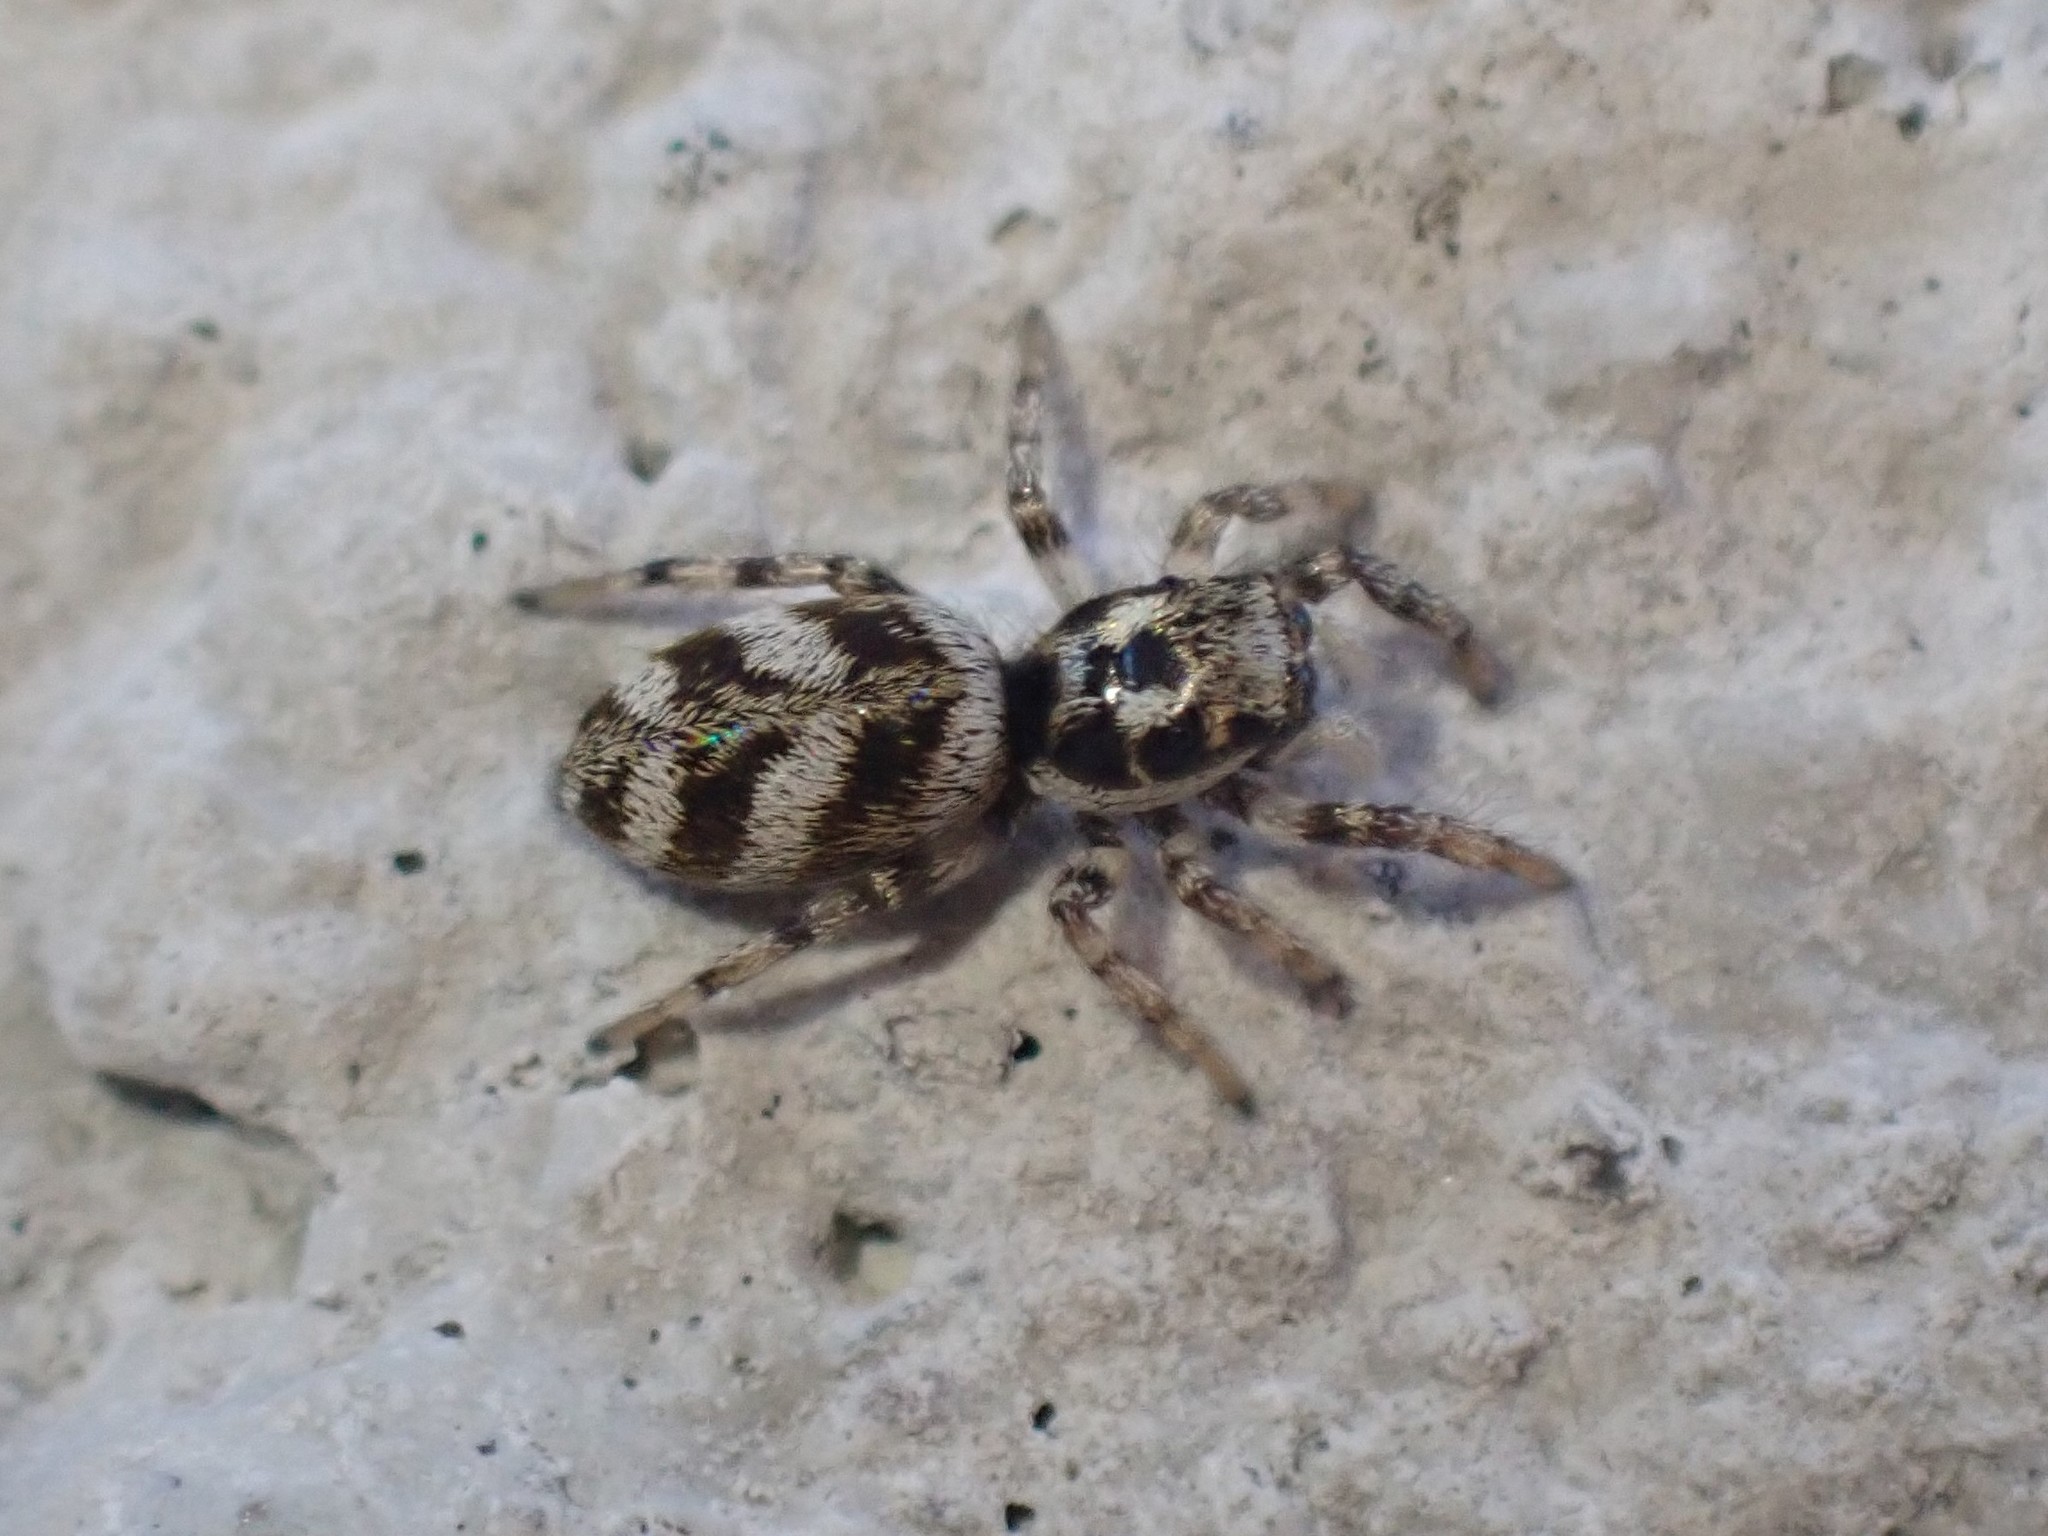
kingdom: Animalia
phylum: Arthropoda
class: Arachnida
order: Araneae
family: Salticidae
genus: Salticus
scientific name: Salticus scenicus
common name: Zebra jumper
